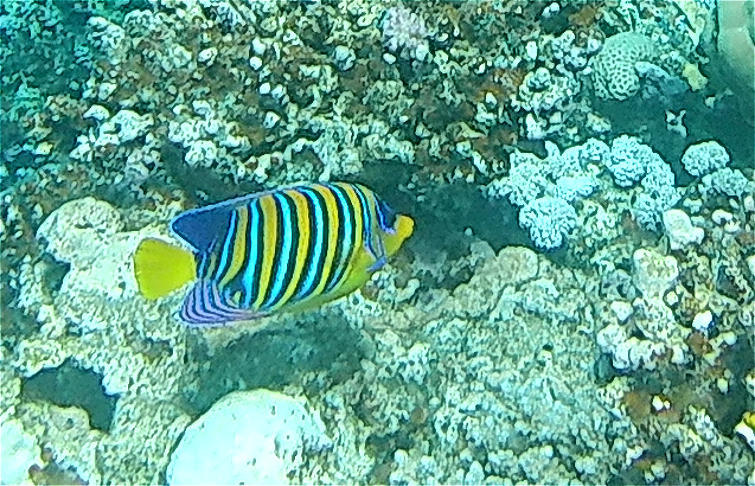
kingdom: Animalia
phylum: Chordata
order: Perciformes
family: Pomacanthidae
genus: Pygoplites
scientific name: Pygoplites diacanthus
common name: Regal angelfish
